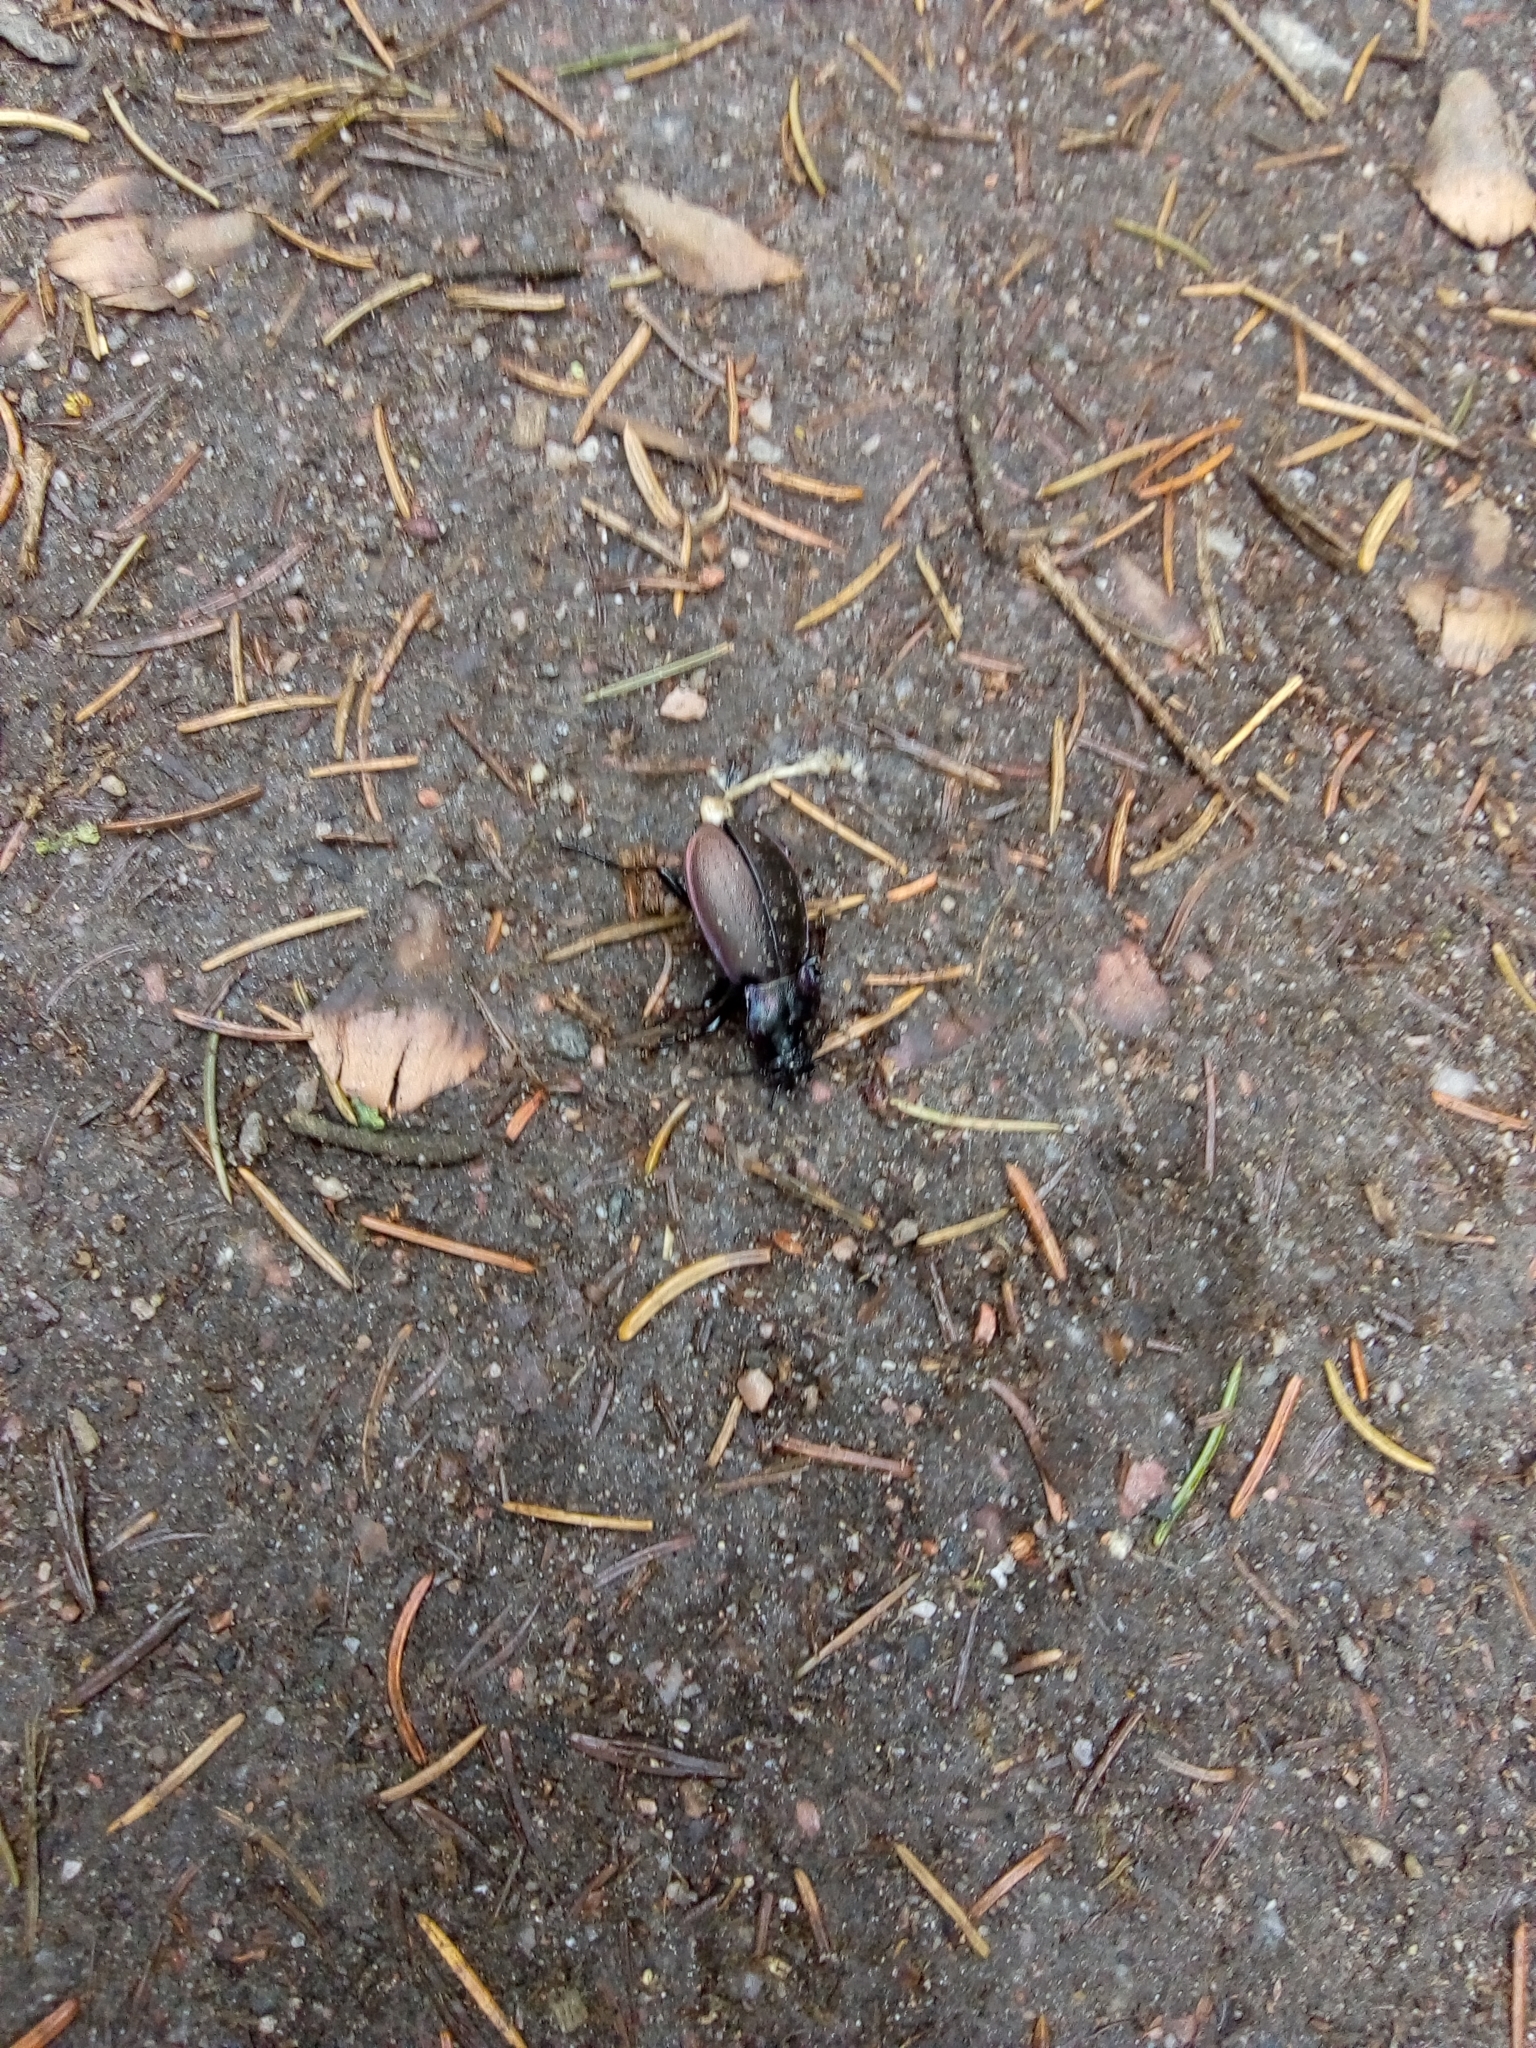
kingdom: Animalia
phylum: Arthropoda
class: Insecta
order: Coleoptera
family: Carabidae
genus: Carabus
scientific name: Carabus nemoralis
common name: European ground beetle
